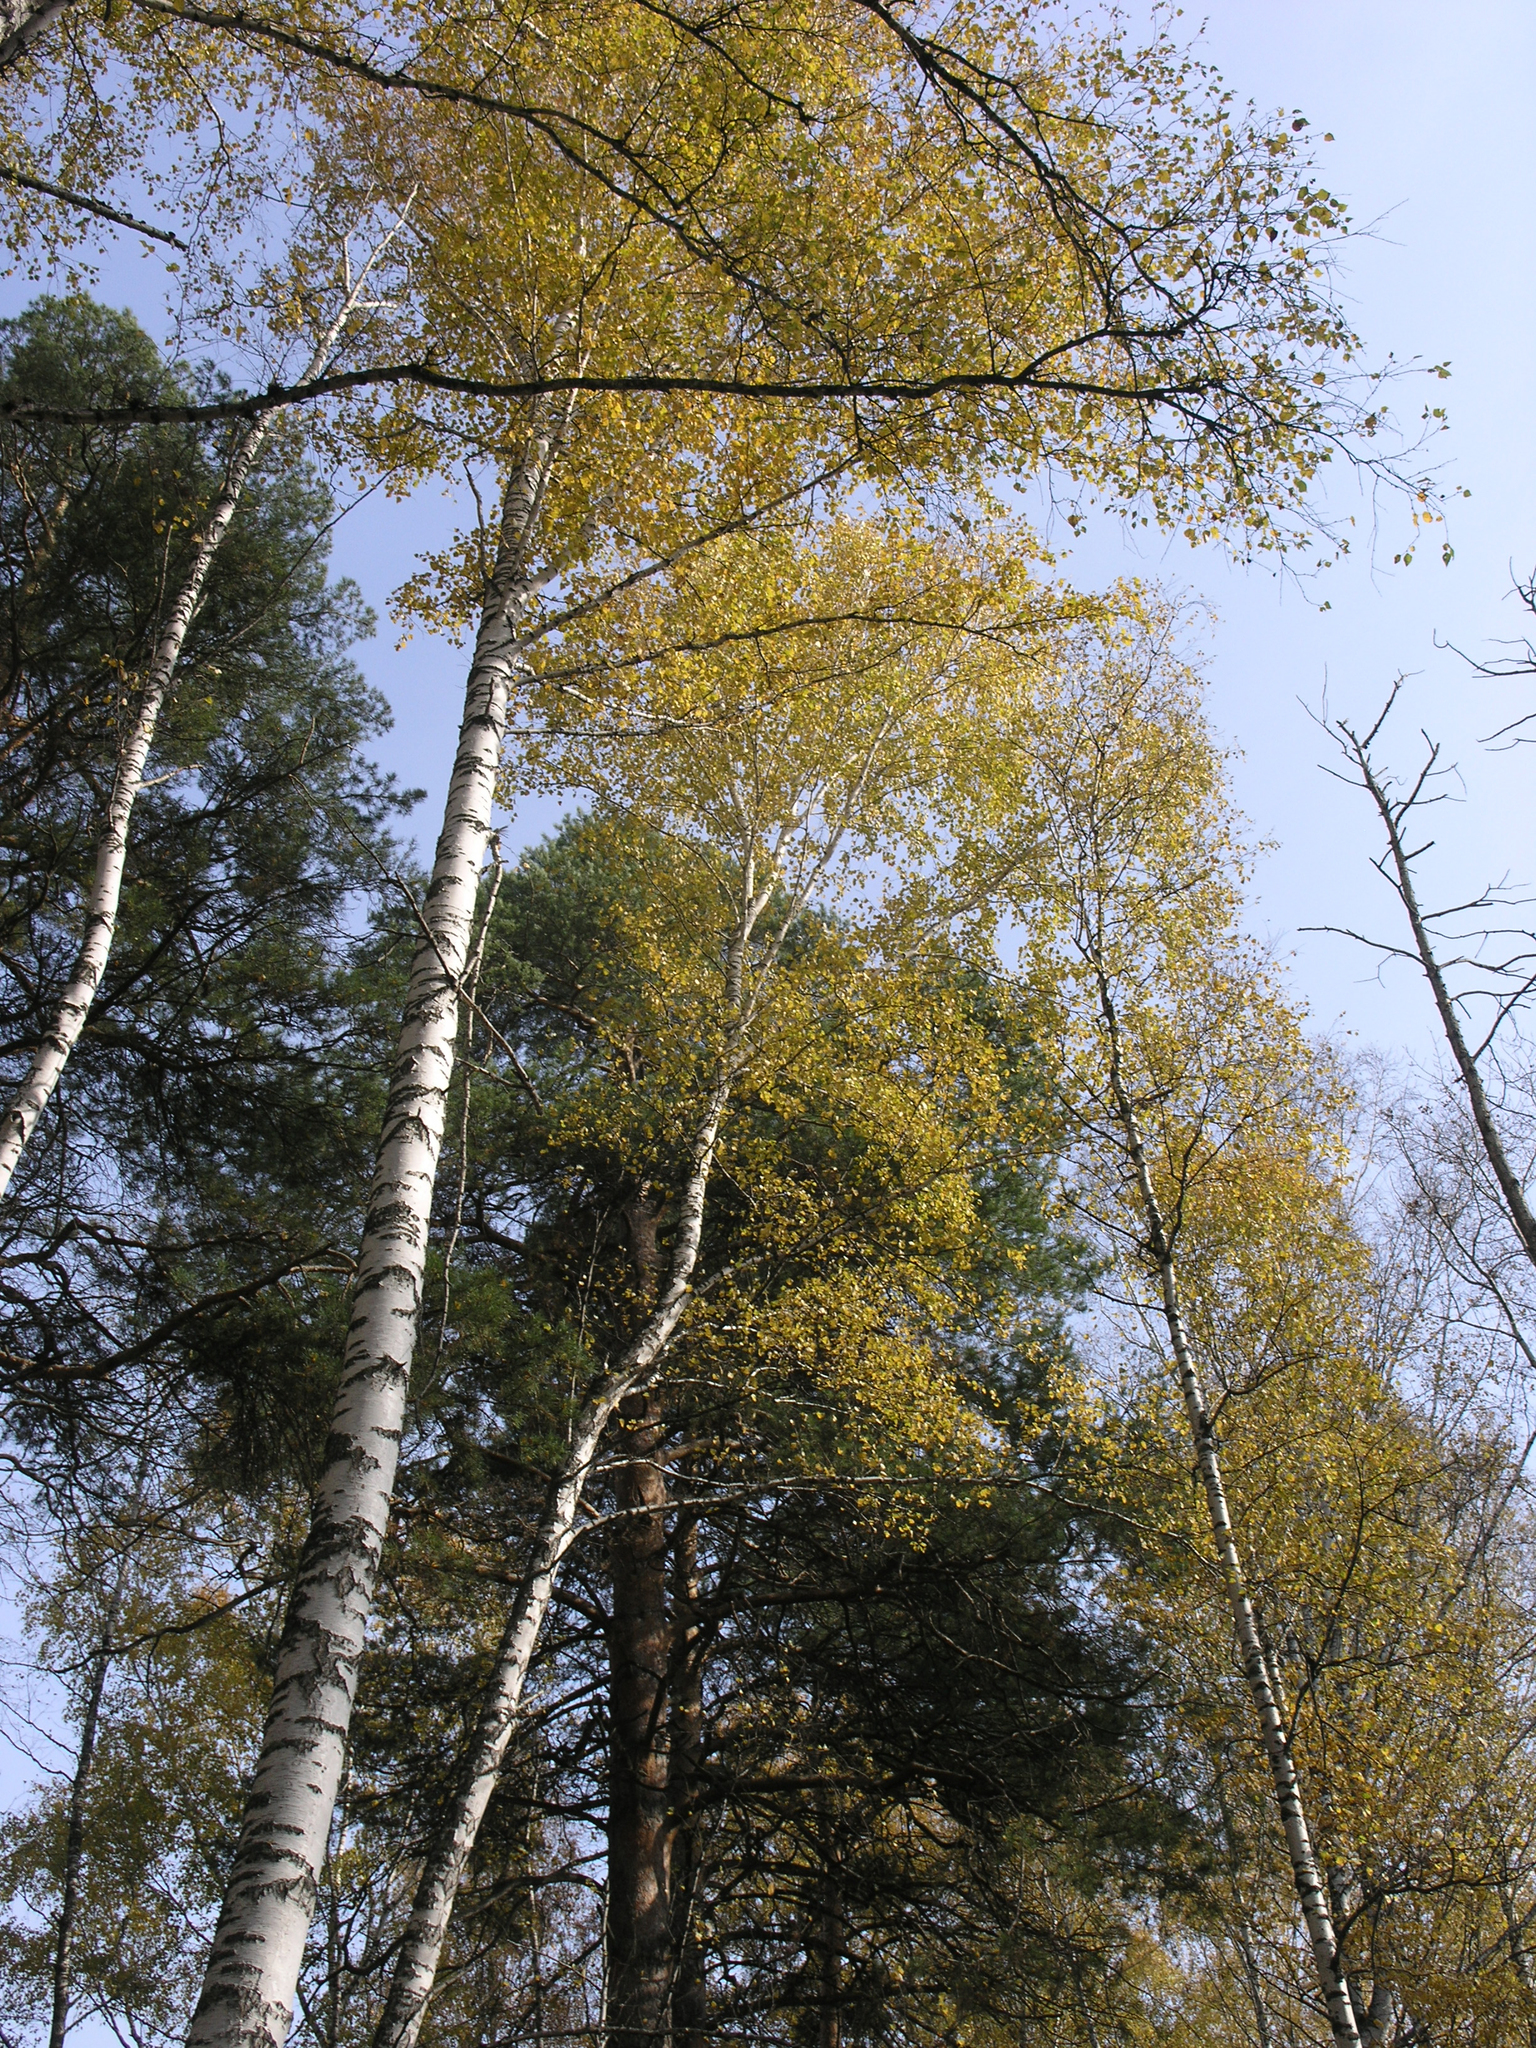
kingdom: Plantae
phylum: Tracheophyta
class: Magnoliopsida
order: Fagales
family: Betulaceae
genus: Betula
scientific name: Betula pendula
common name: Silver birch
